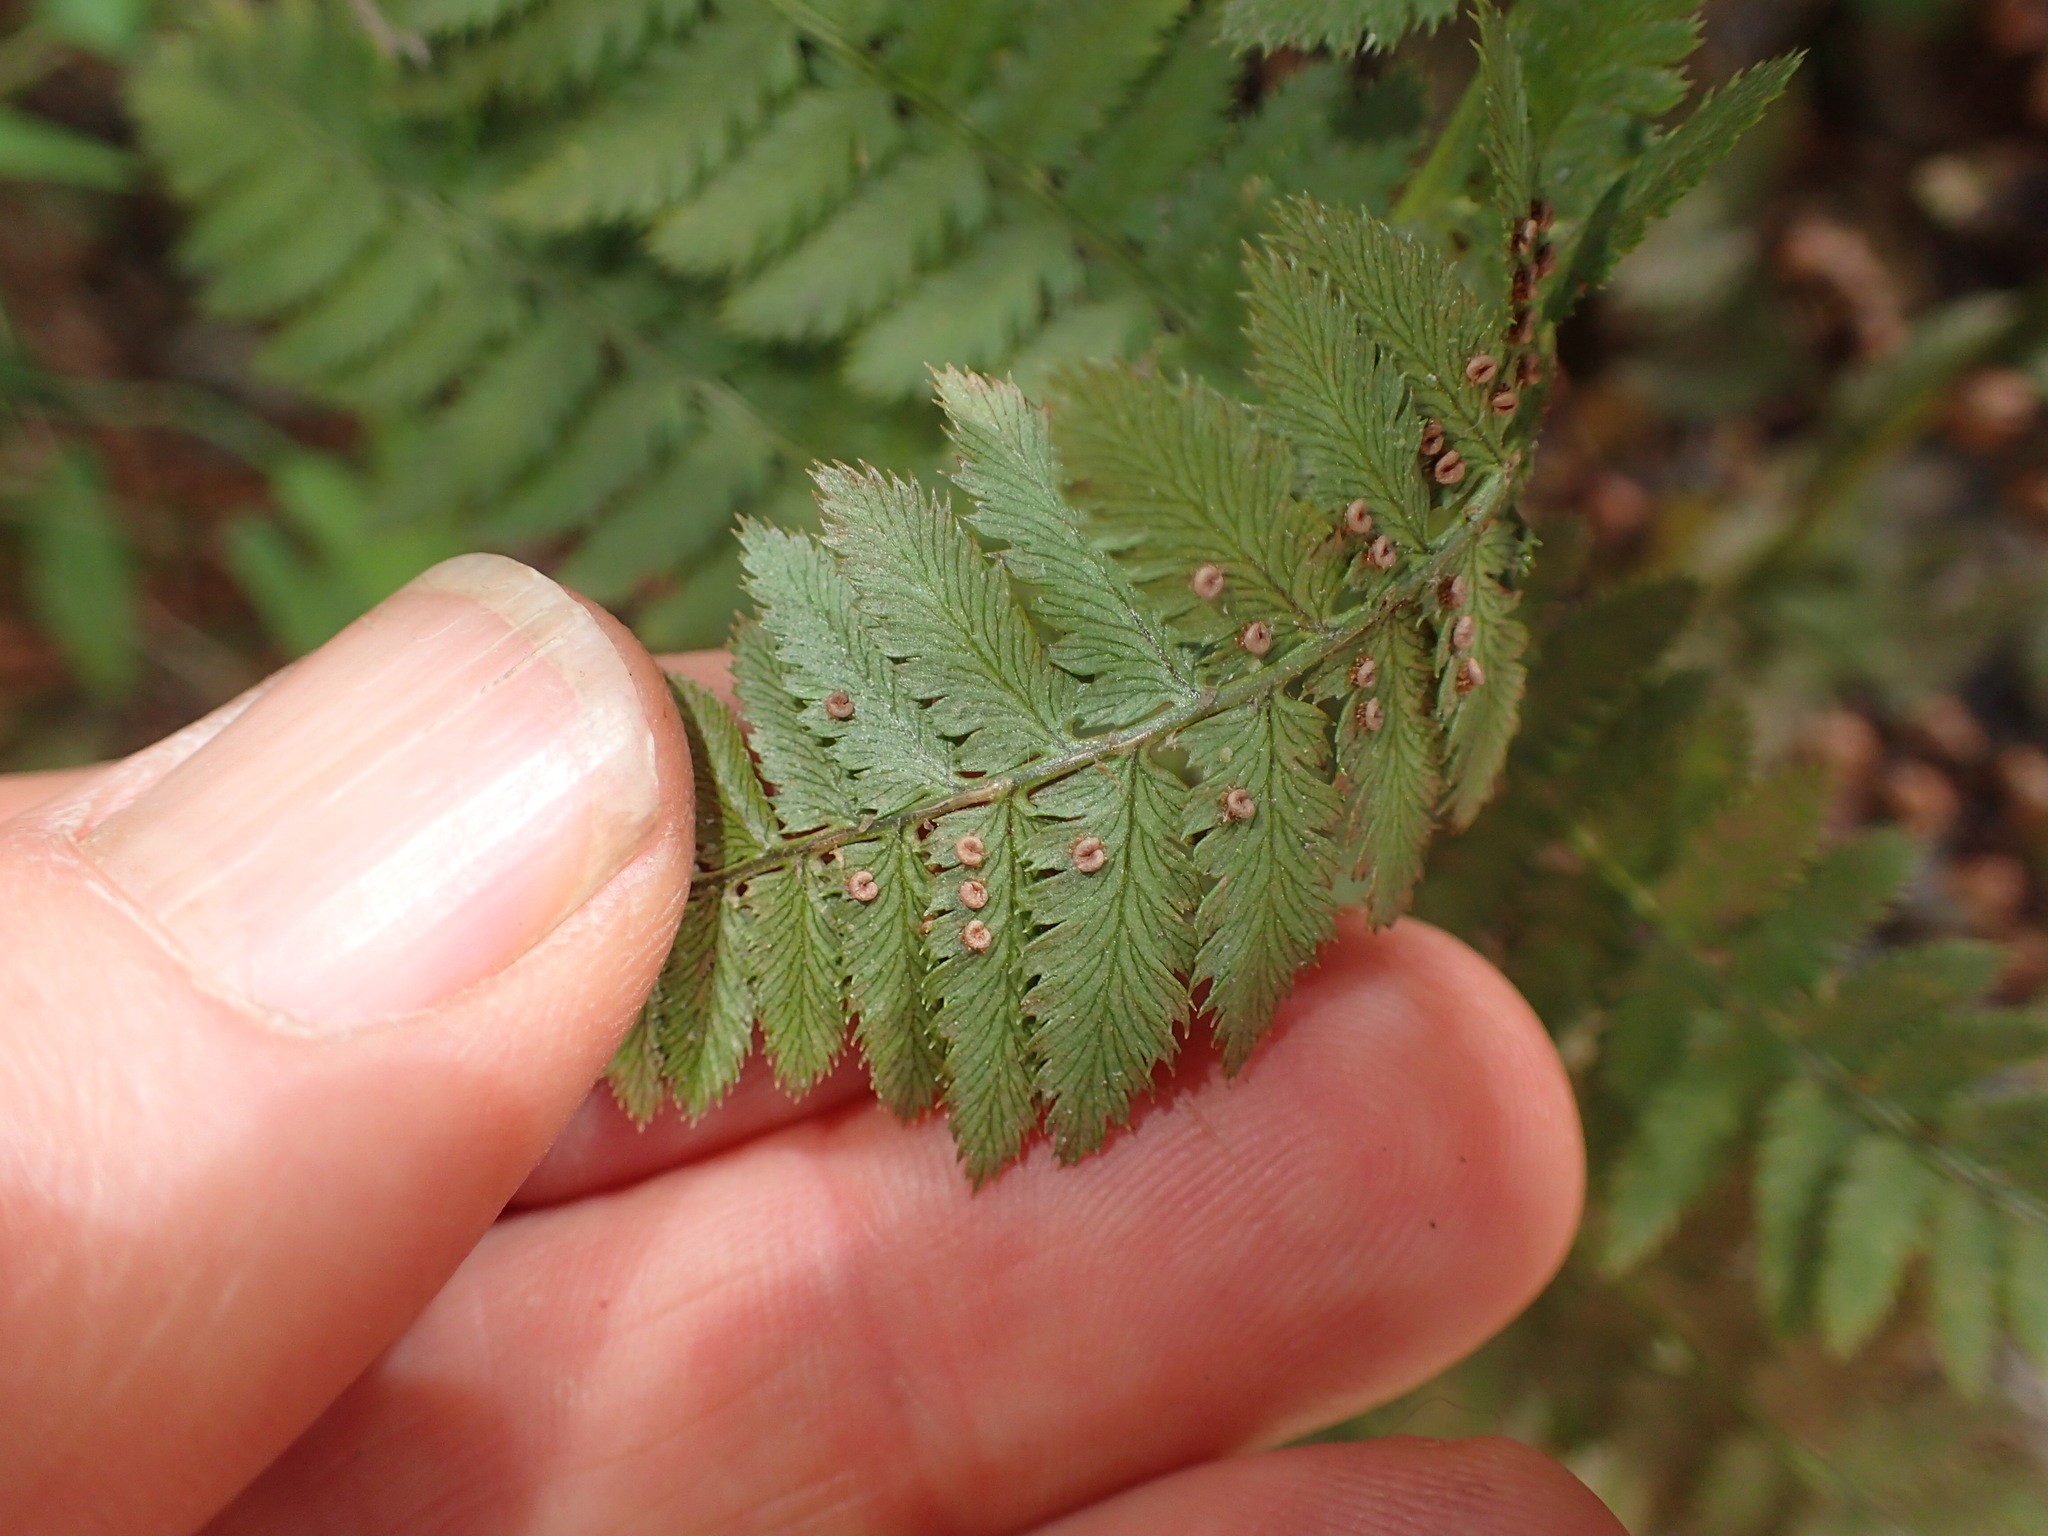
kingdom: Plantae
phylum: Tracheophyta
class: Polypodiopsida
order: Polypodiales
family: Dryopteridaceae
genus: Dryopteris
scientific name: Dryopteris arguta
